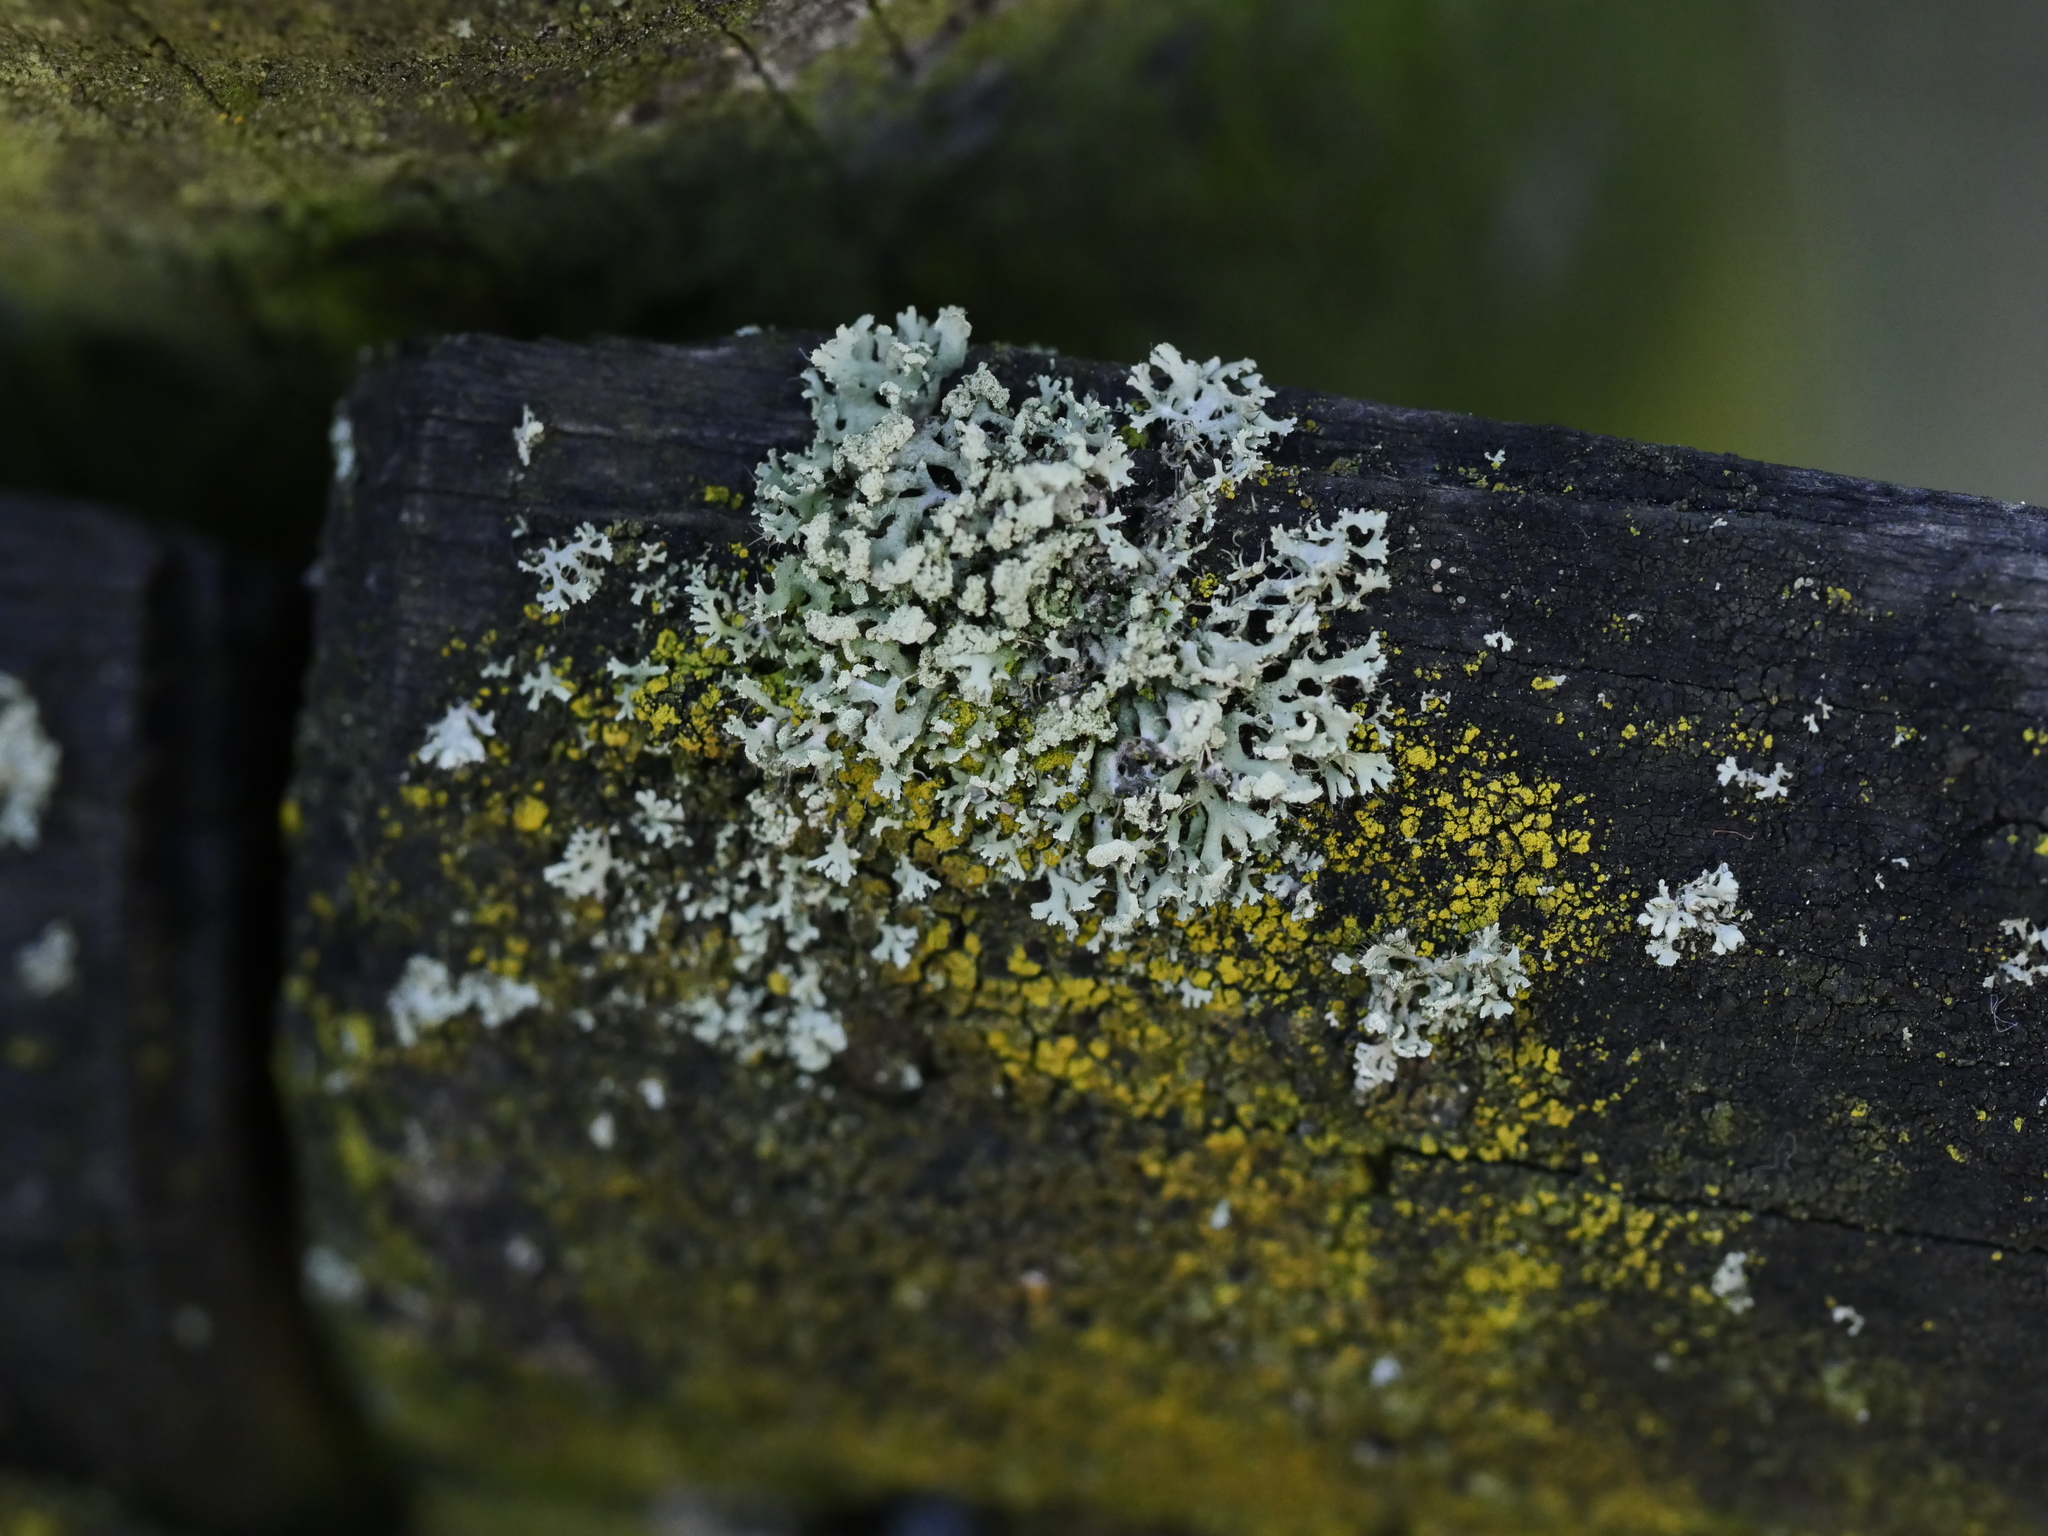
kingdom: Fungi
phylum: Ascomycota
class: Lecanoromycetes
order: Caliciales
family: Physciaceae
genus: Physcia
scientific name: Physcia tenella
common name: Fringed rosette lichen
